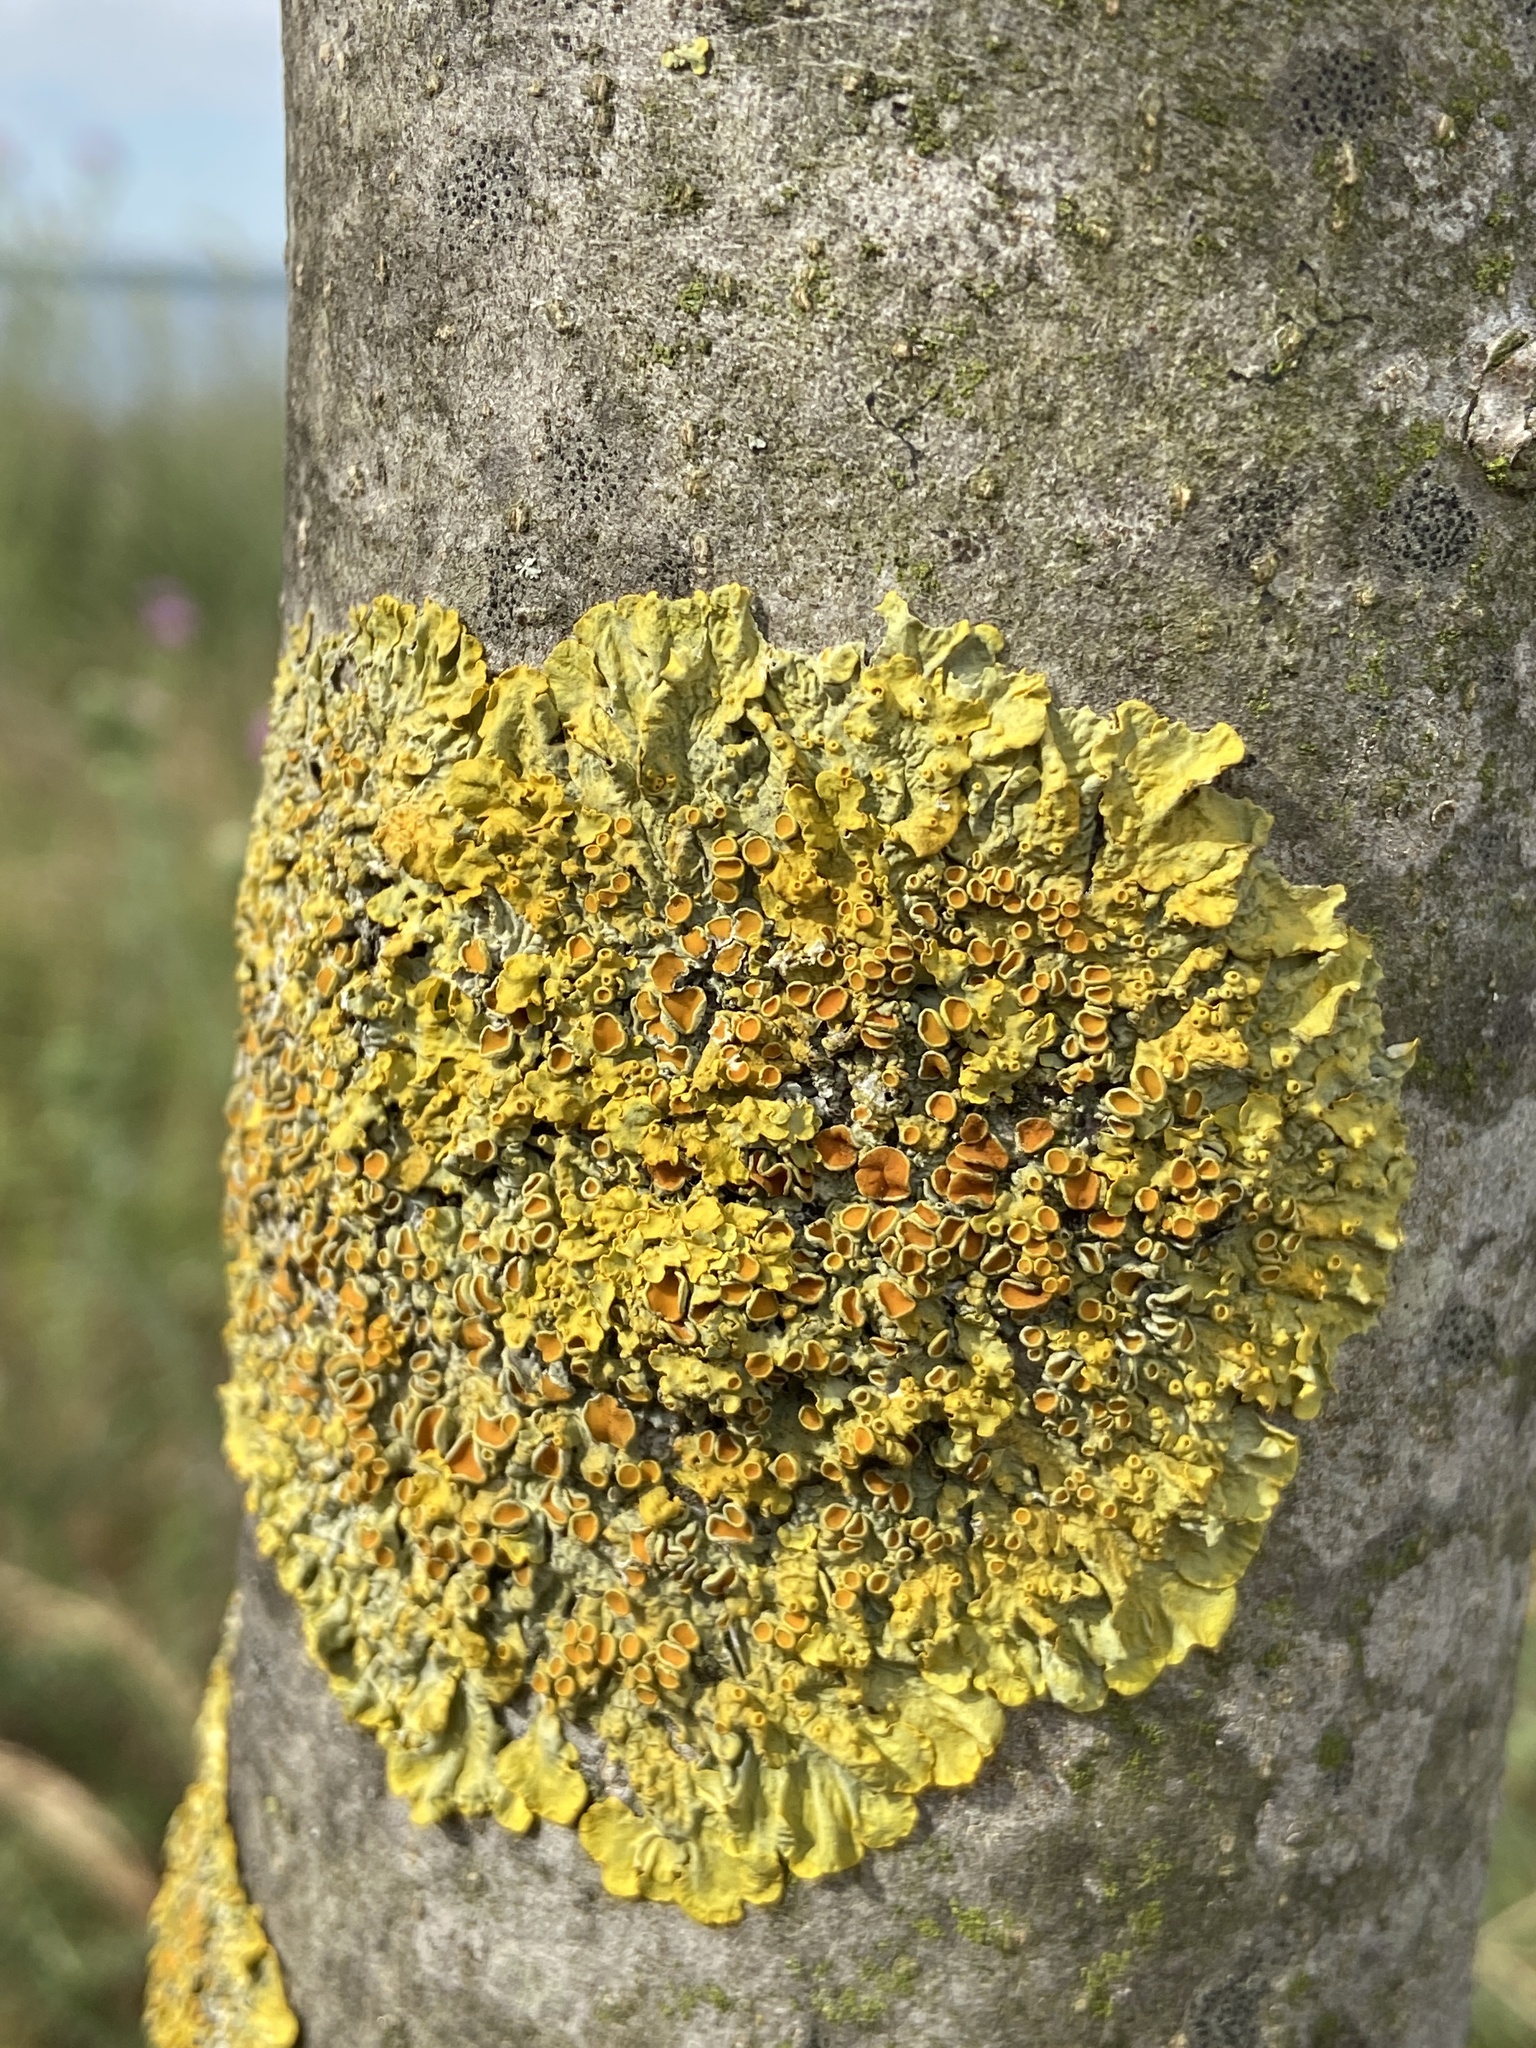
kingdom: Fungi
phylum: Ascomycota
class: Lecanoromycetes
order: Teloschistales
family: Teloschistaceae
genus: Xanthoria
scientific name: Xanthoria parietina
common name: Common orange lichen
